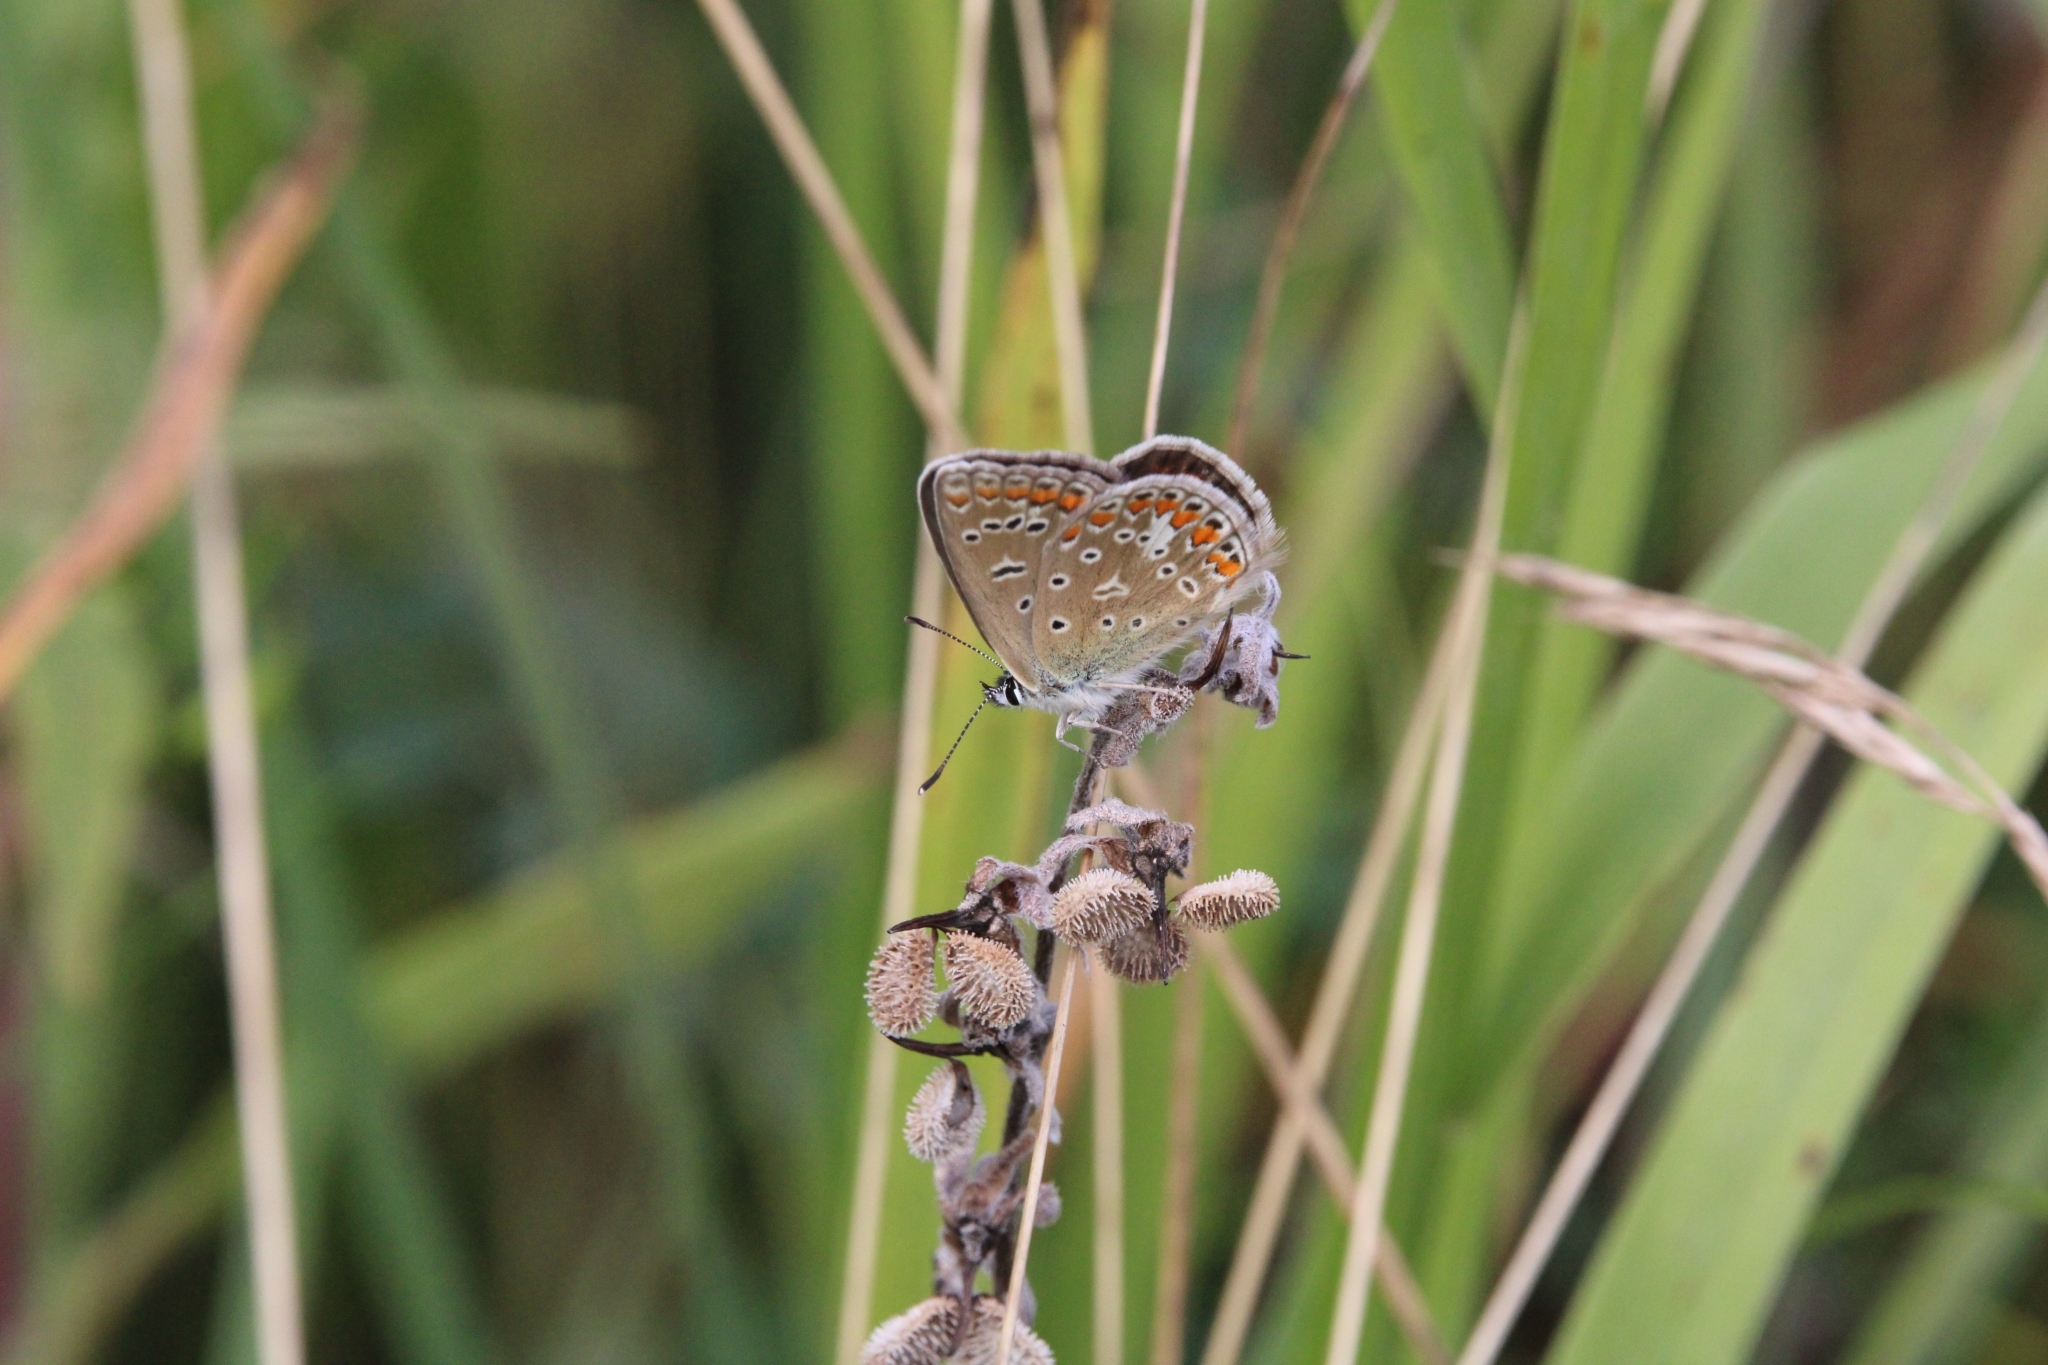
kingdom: Animalia
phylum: Arthropoda
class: Insecta
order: Lepidoptera
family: Lycaenidae
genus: Polyommatus
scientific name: Polyommatus icarus
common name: Common blue
